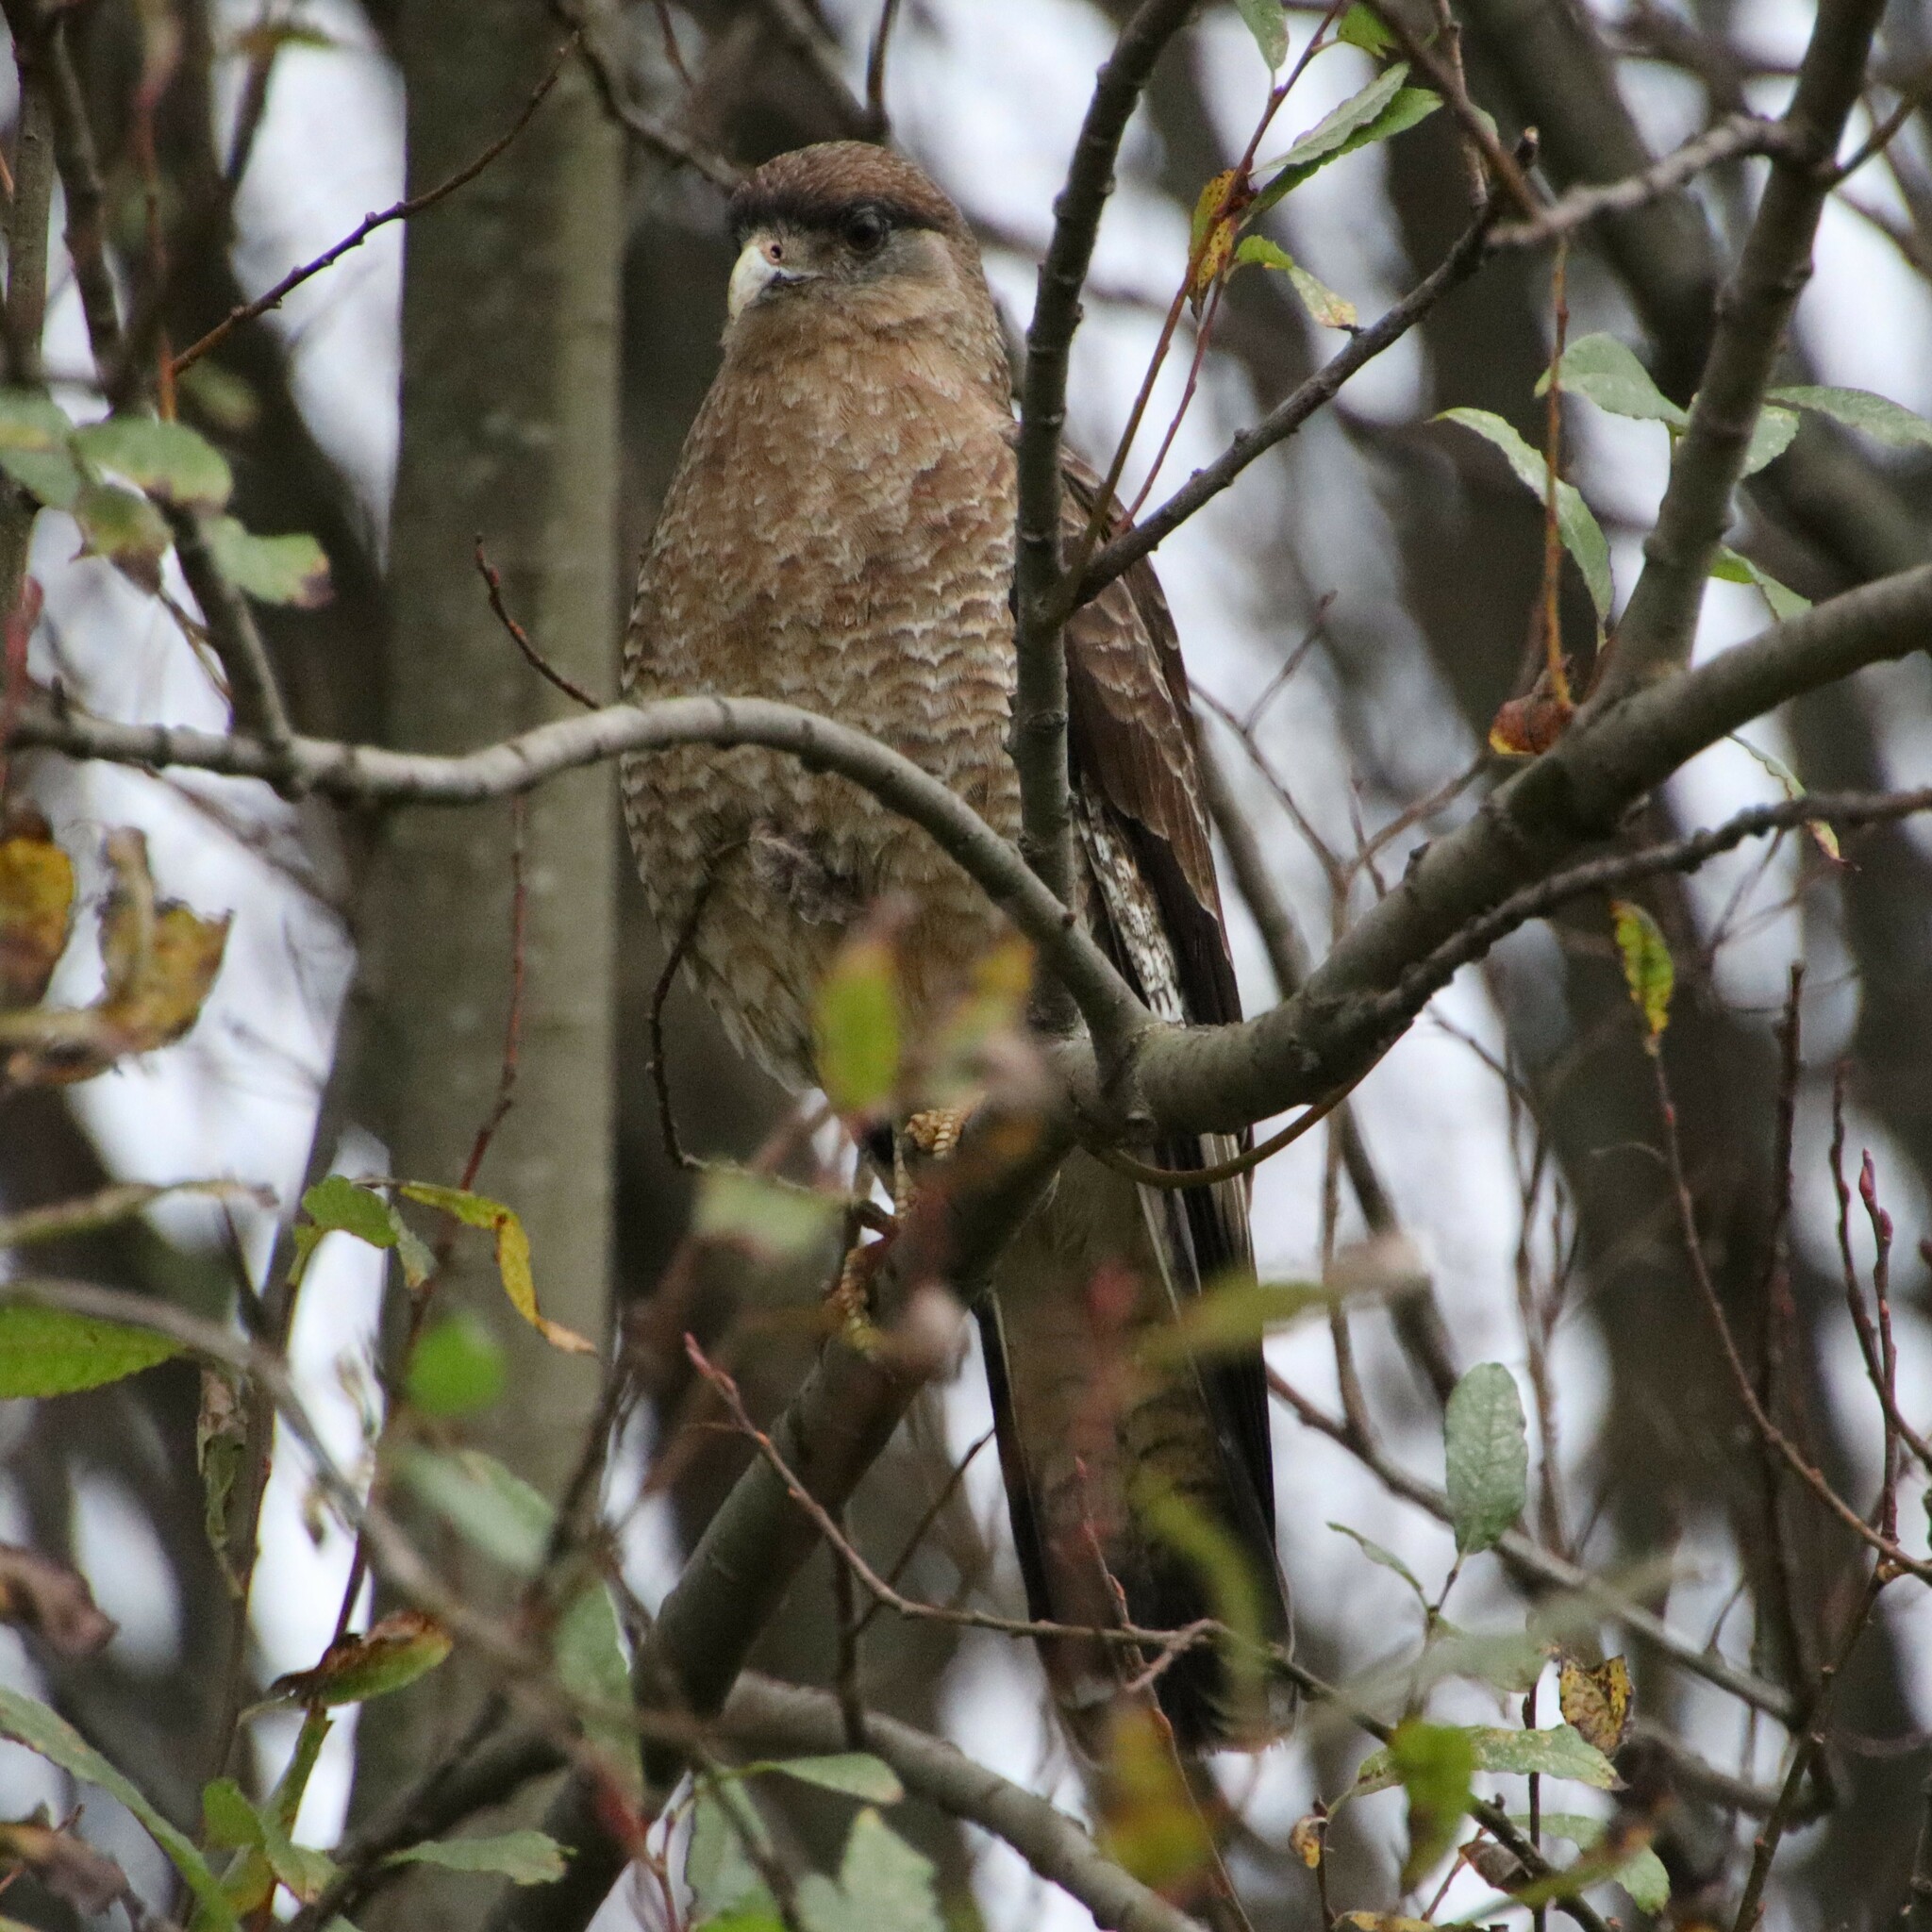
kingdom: Animalia
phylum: Chordata
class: Aves
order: Falconiformes
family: Falconidae
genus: Daptrius
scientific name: Daptrius
